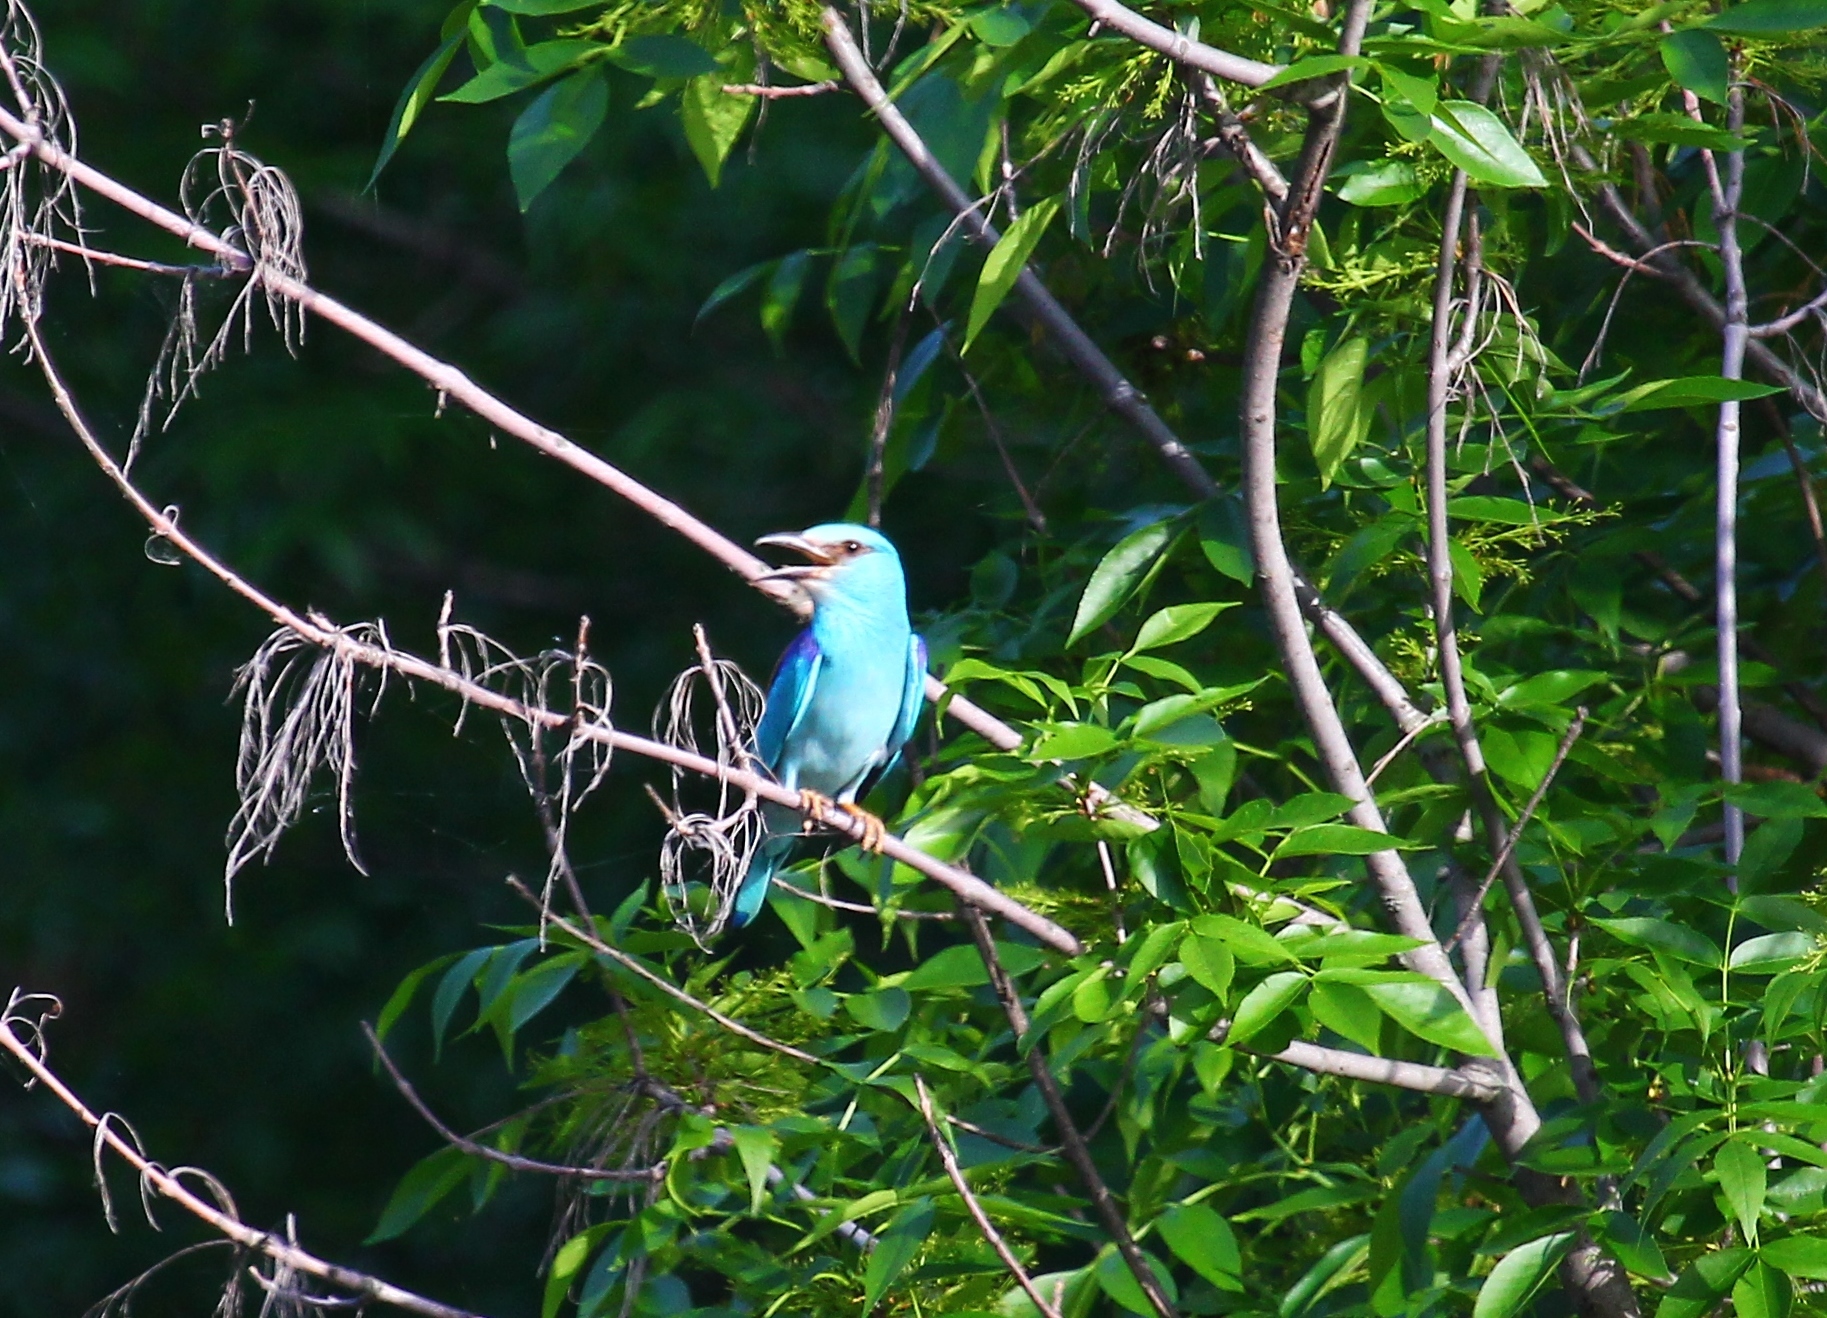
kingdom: Animalia
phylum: Chordata
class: Aves
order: Coraciiformes
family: Coraciidae
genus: Coracias
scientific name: Coracias garrulus
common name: European roller
